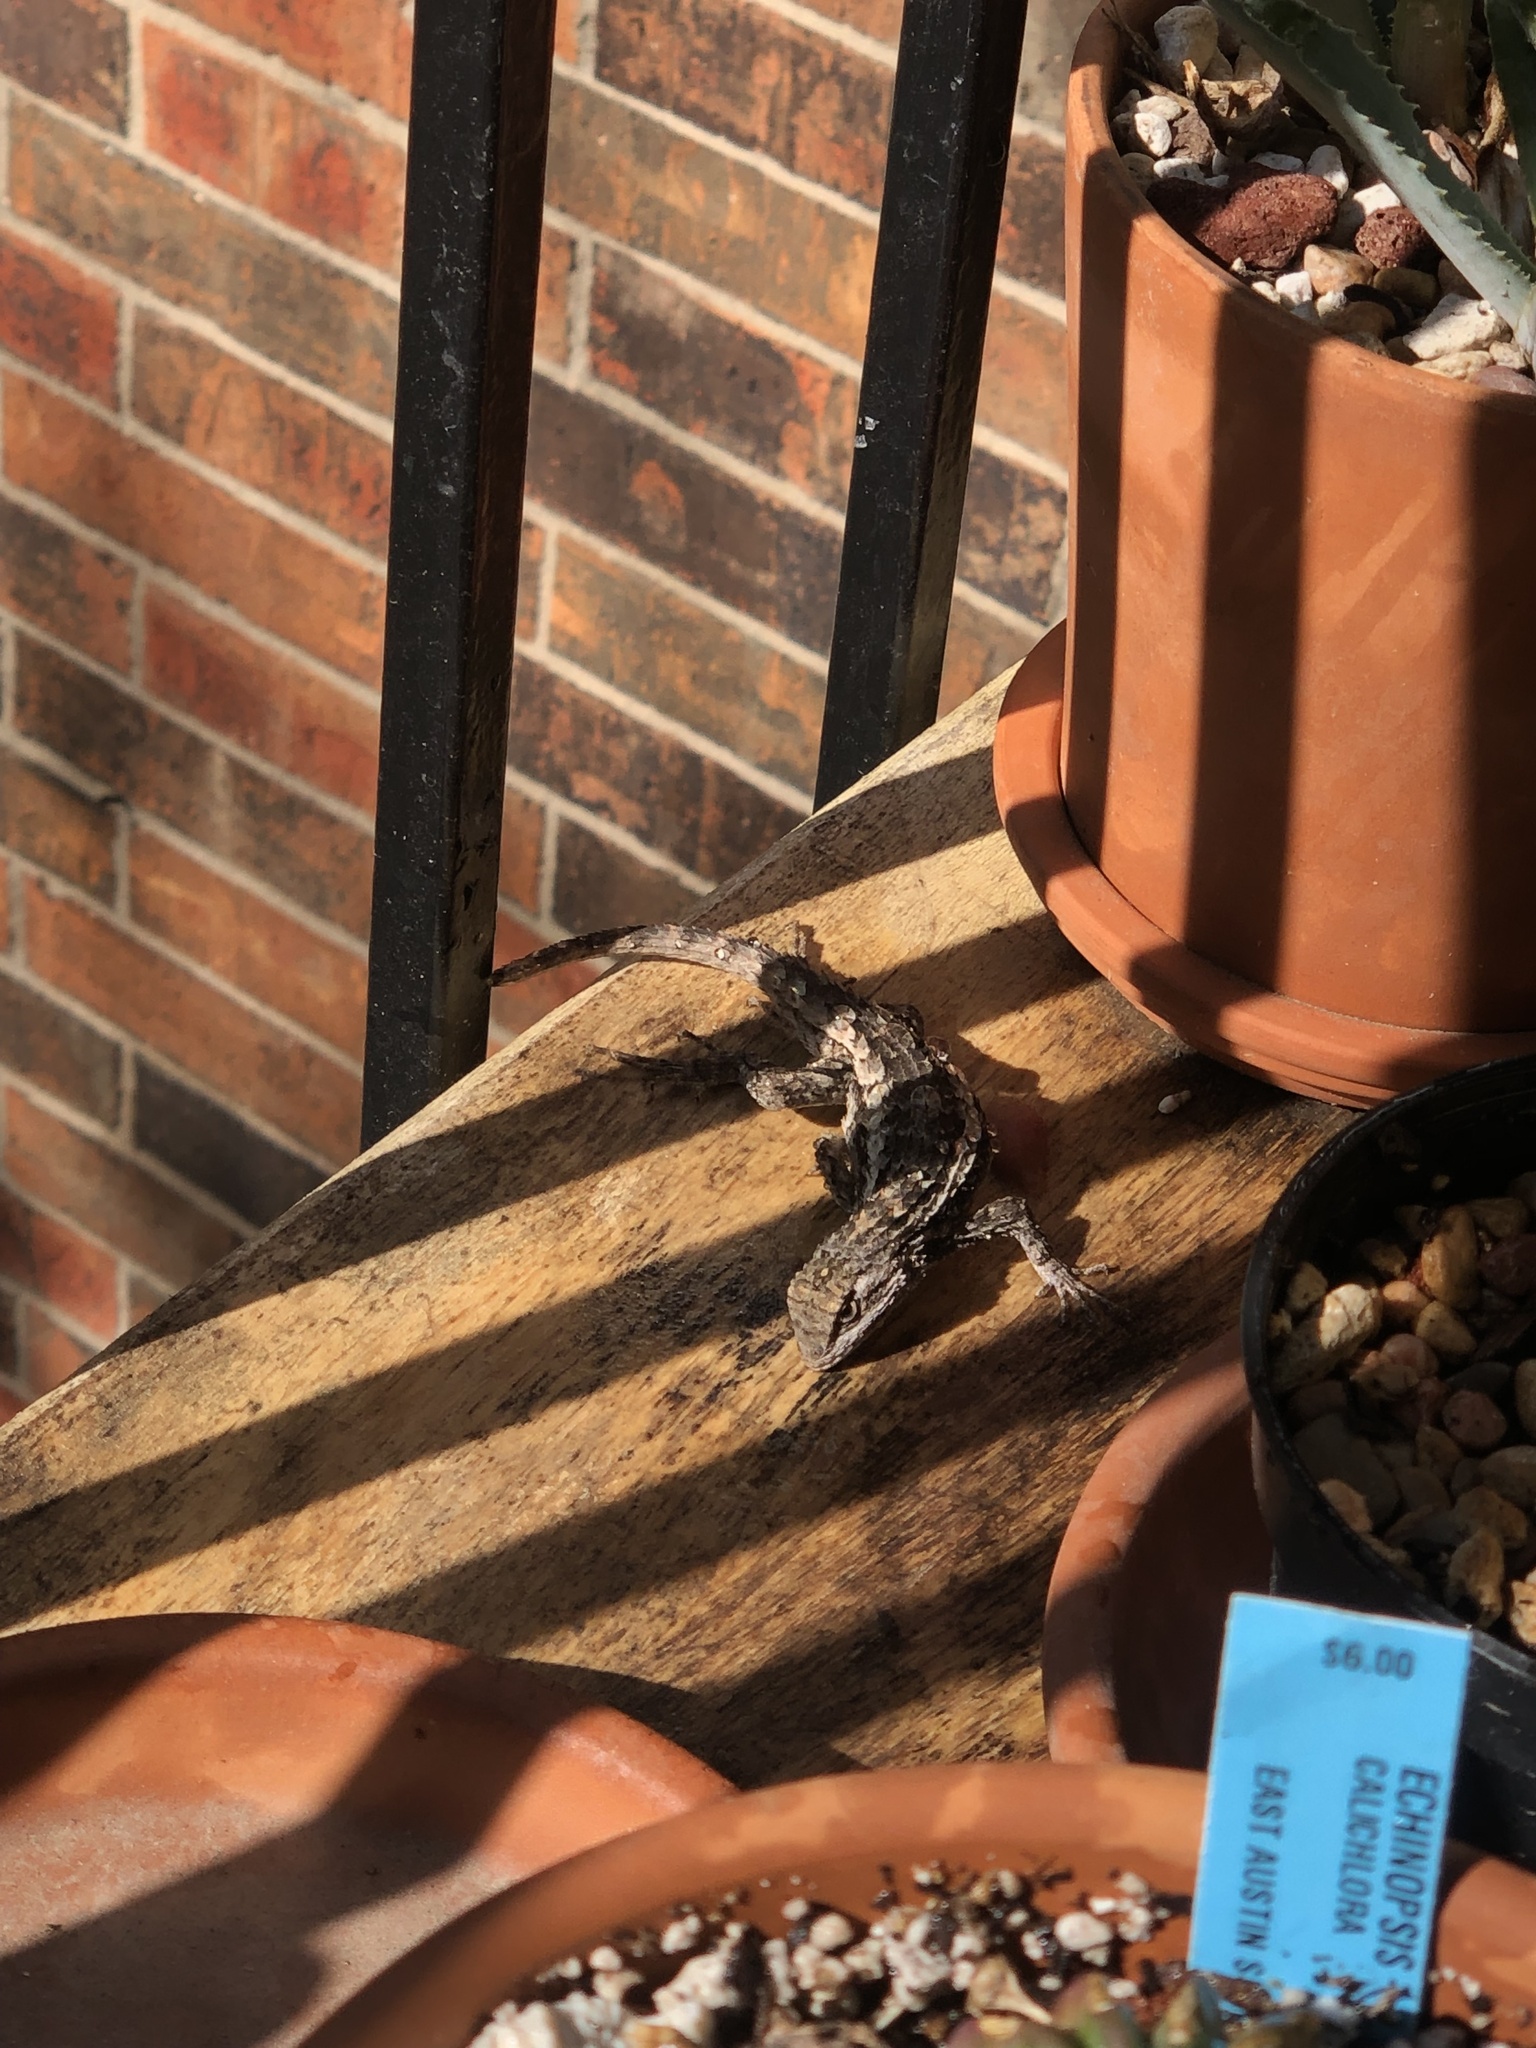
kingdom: Animalia
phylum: Chordata
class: Squamata
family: Phrynosomatidae
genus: Sceloporus
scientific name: Sceloporus olivaceus
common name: Texas spiny lizard
